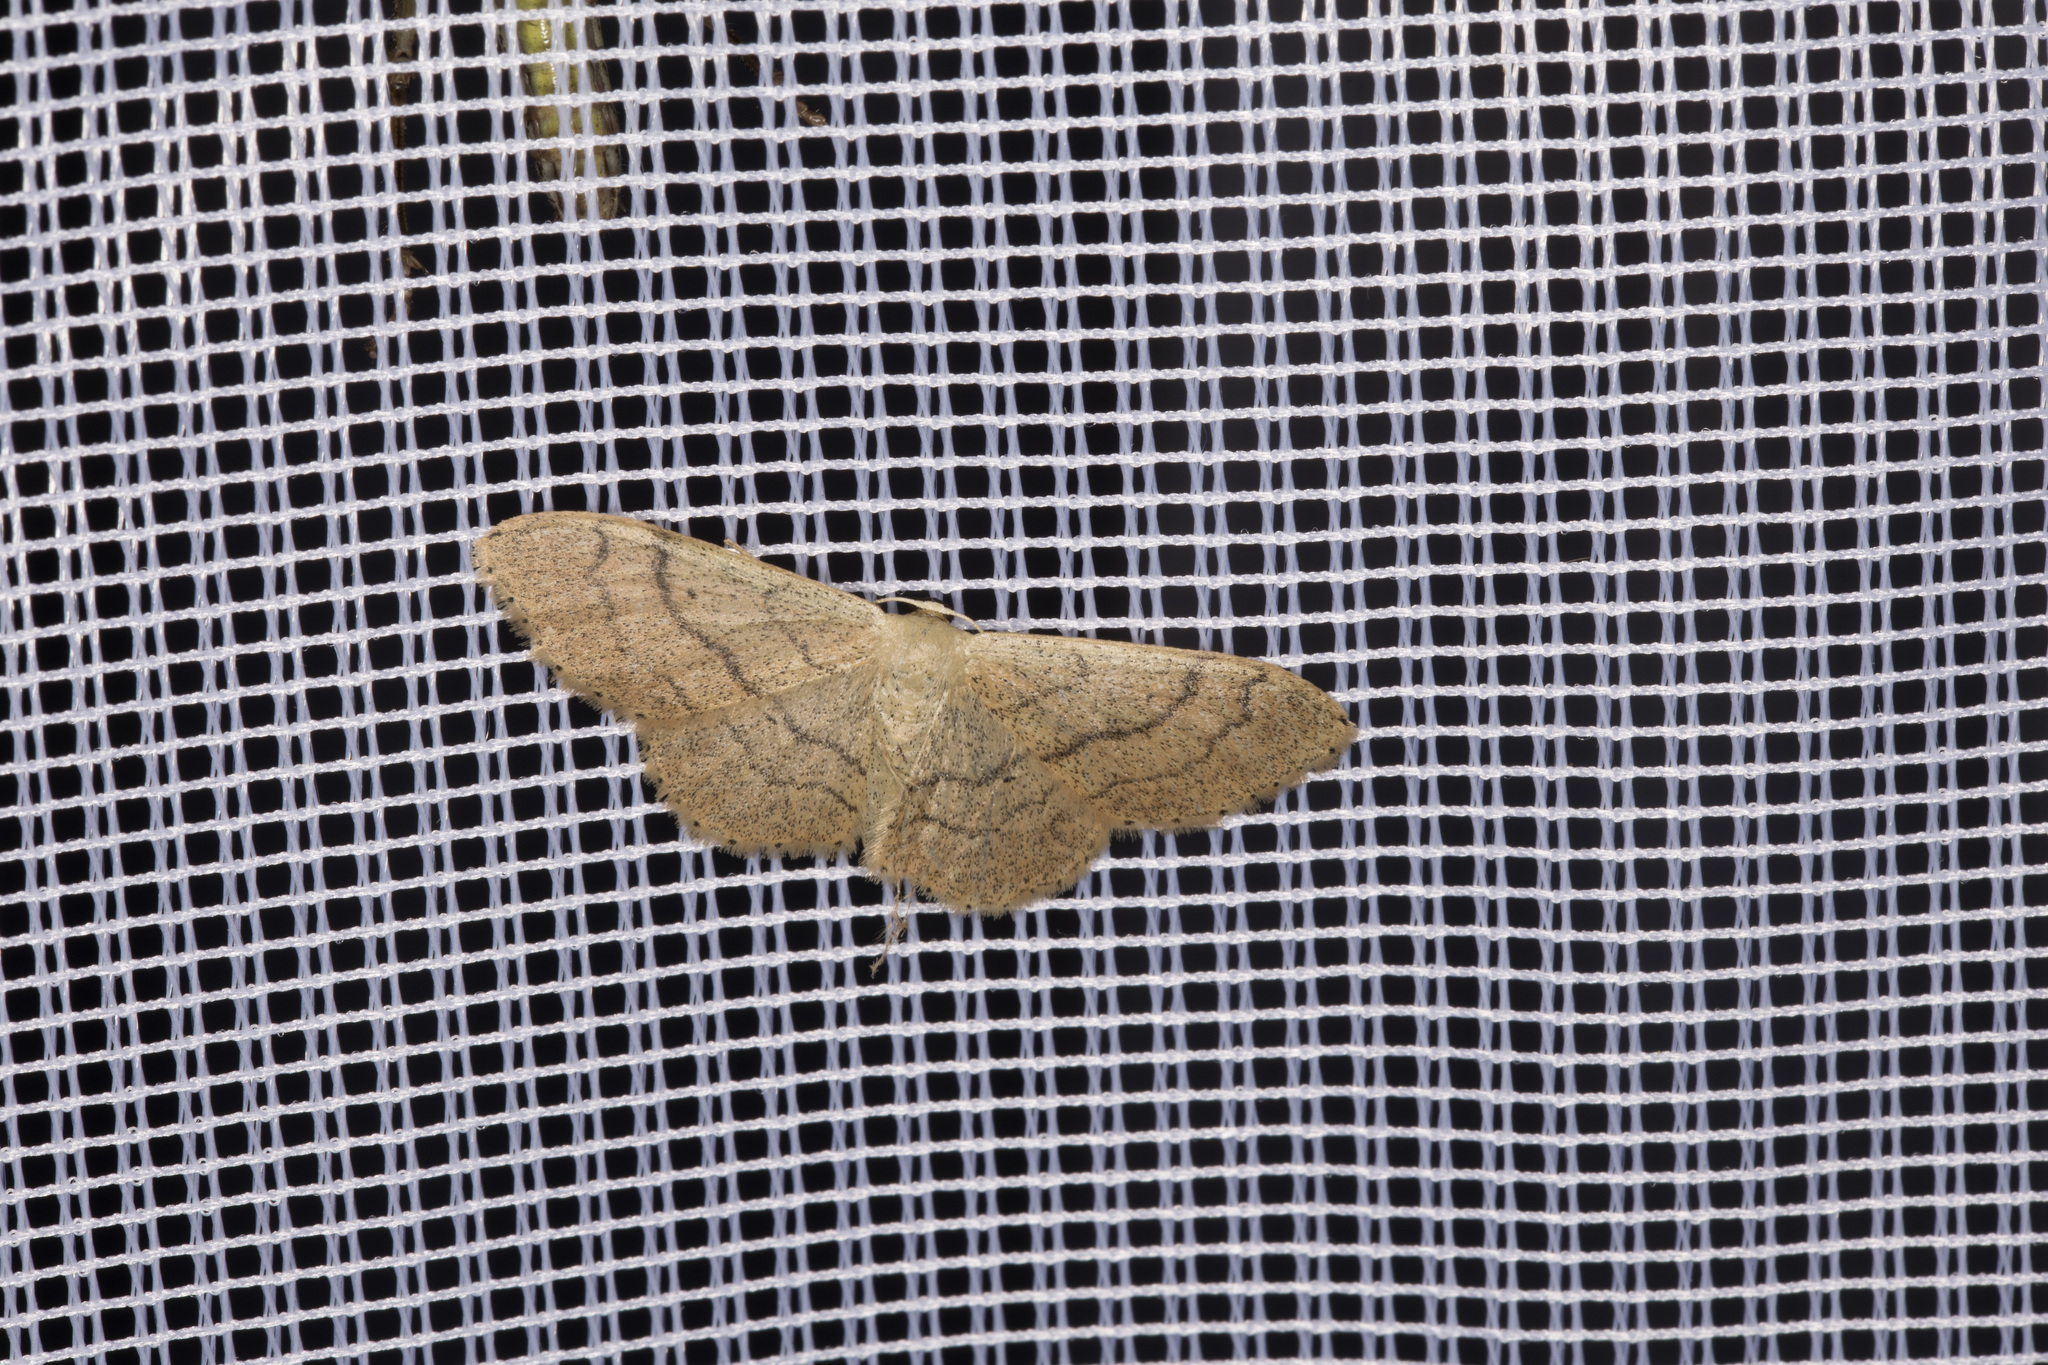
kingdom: Animalia
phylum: Arthropoda
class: Insecta
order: Lepidoptera
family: Geometridae
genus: Idaea
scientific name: Idaea aversata
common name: Riband wave
